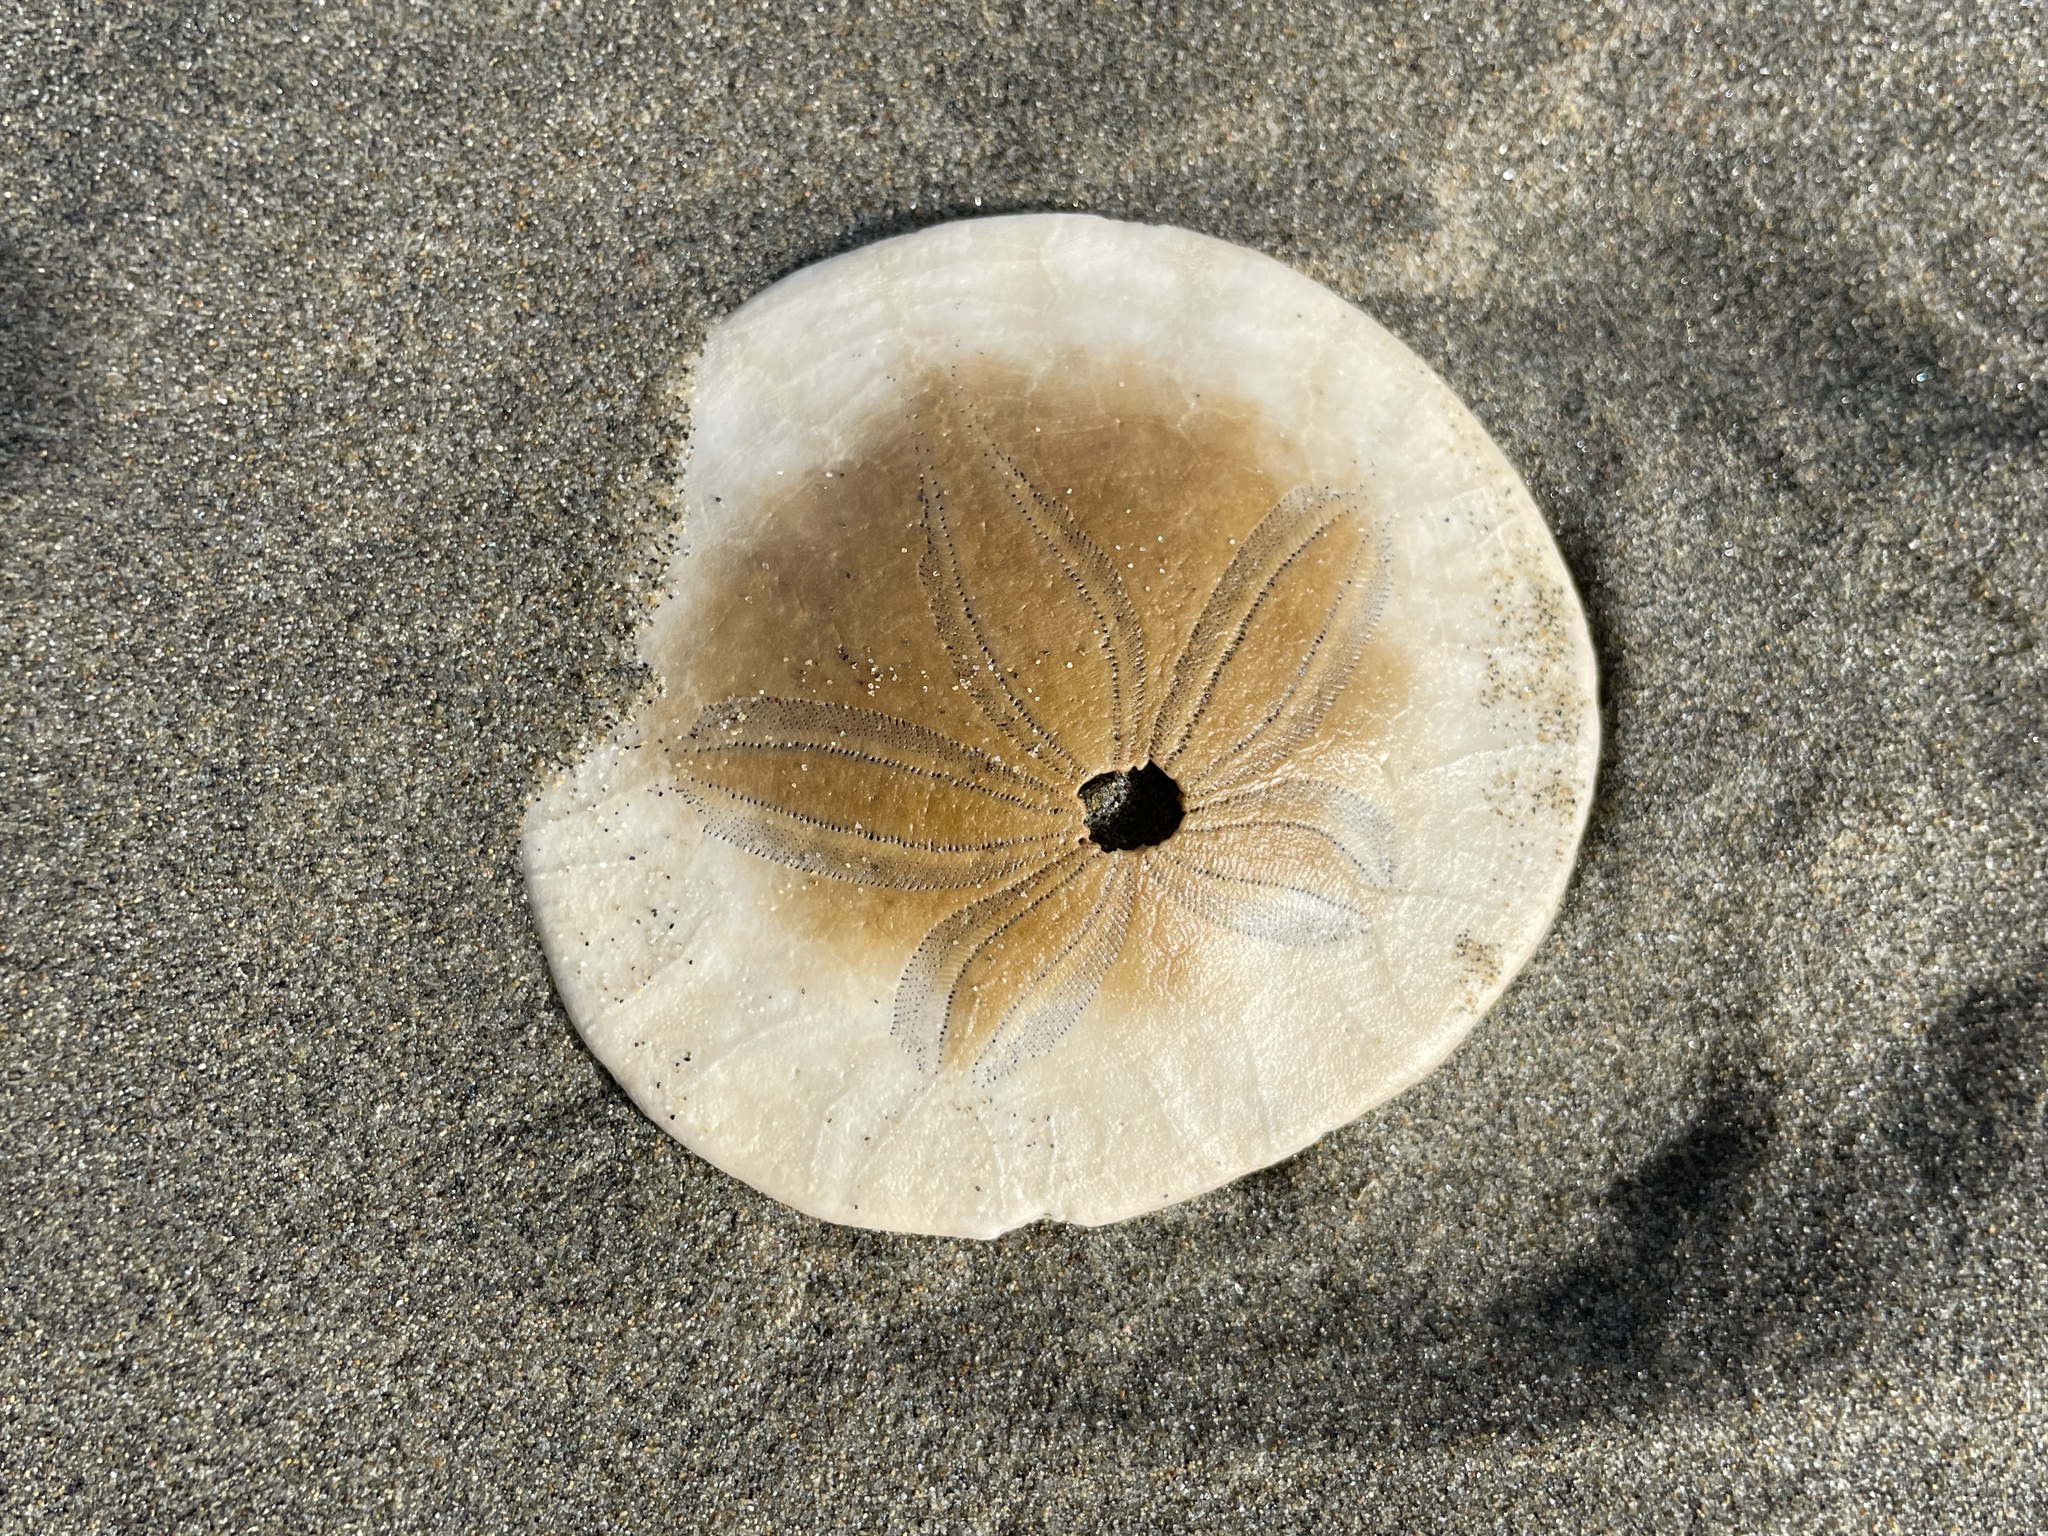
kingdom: Animalia
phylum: Echinodermata
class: Echinoidea
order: Echinolampadacea
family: Dendrasteridae
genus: Dendraster
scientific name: Dendraster excentricus
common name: Eccentric sand dollar sea urchin
